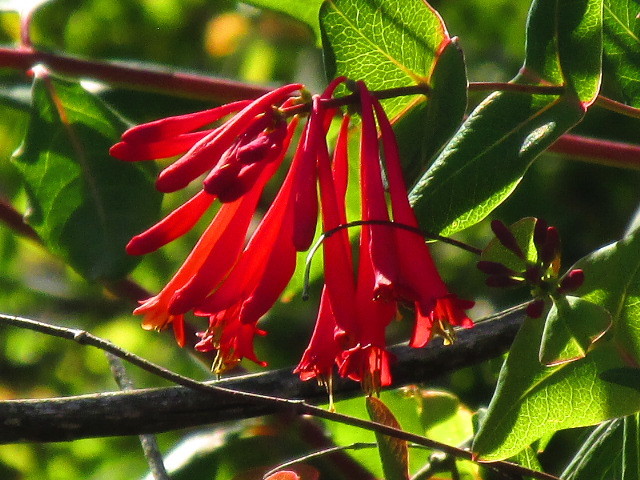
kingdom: Plantae
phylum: Tracheophyta
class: Magnoliopsida
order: Dipsacales
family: Caprifoliaceae
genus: Lonicera
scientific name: Lonicera sempervirens
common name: Coral honeysuckle
